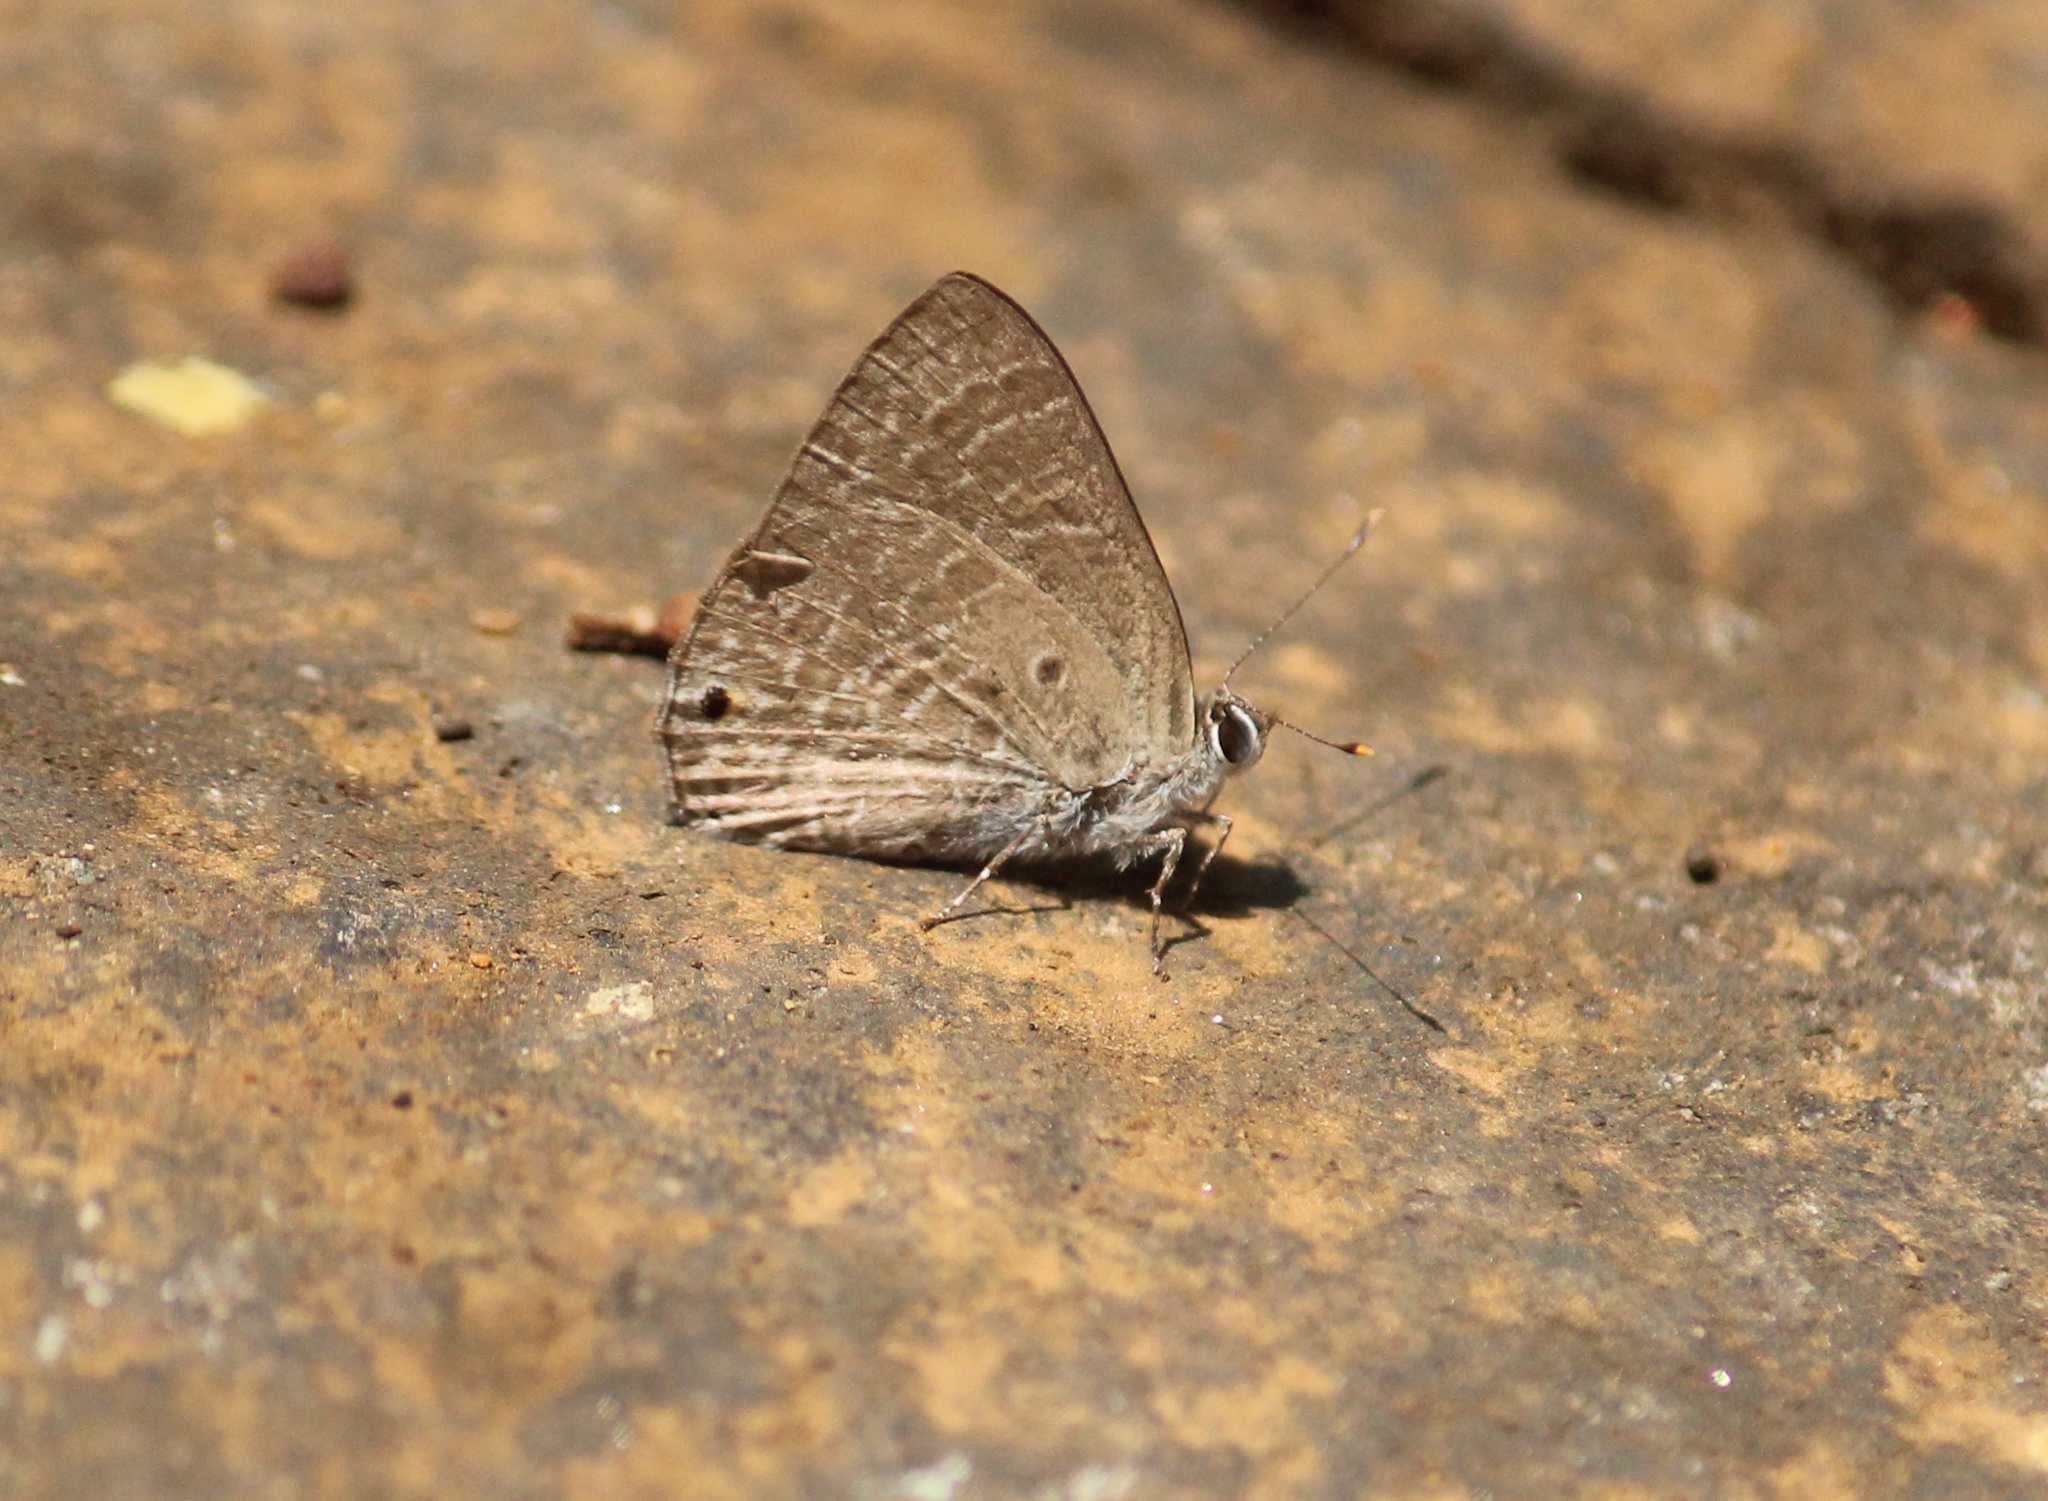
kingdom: Animalia
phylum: Arthropoda
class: Insecta
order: Lepidoptera
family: Lycaenidae
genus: Anthene
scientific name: Anthene lycaenina
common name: Pointed ciliate blue
